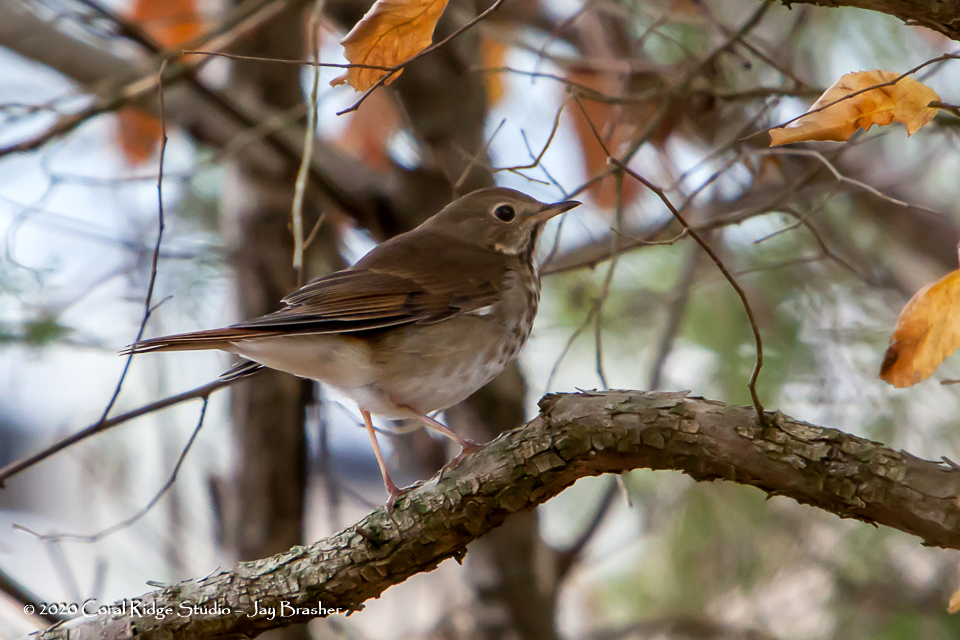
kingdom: Animalia
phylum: Chordata
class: Aves
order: Passeriformes
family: Turdidae
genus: Catharus
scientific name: Catharus guttatus
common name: Hermit thrush
